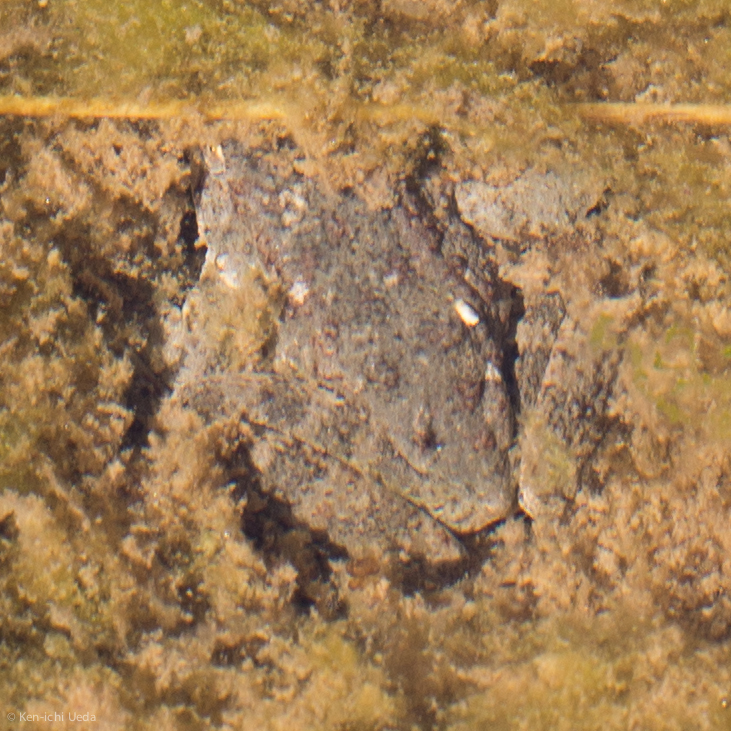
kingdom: Animalia
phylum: Chordata
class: Amphibia
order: Anura
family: Ranidae
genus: Rana
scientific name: Rana boylii
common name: Foothill yellow-legged frog
